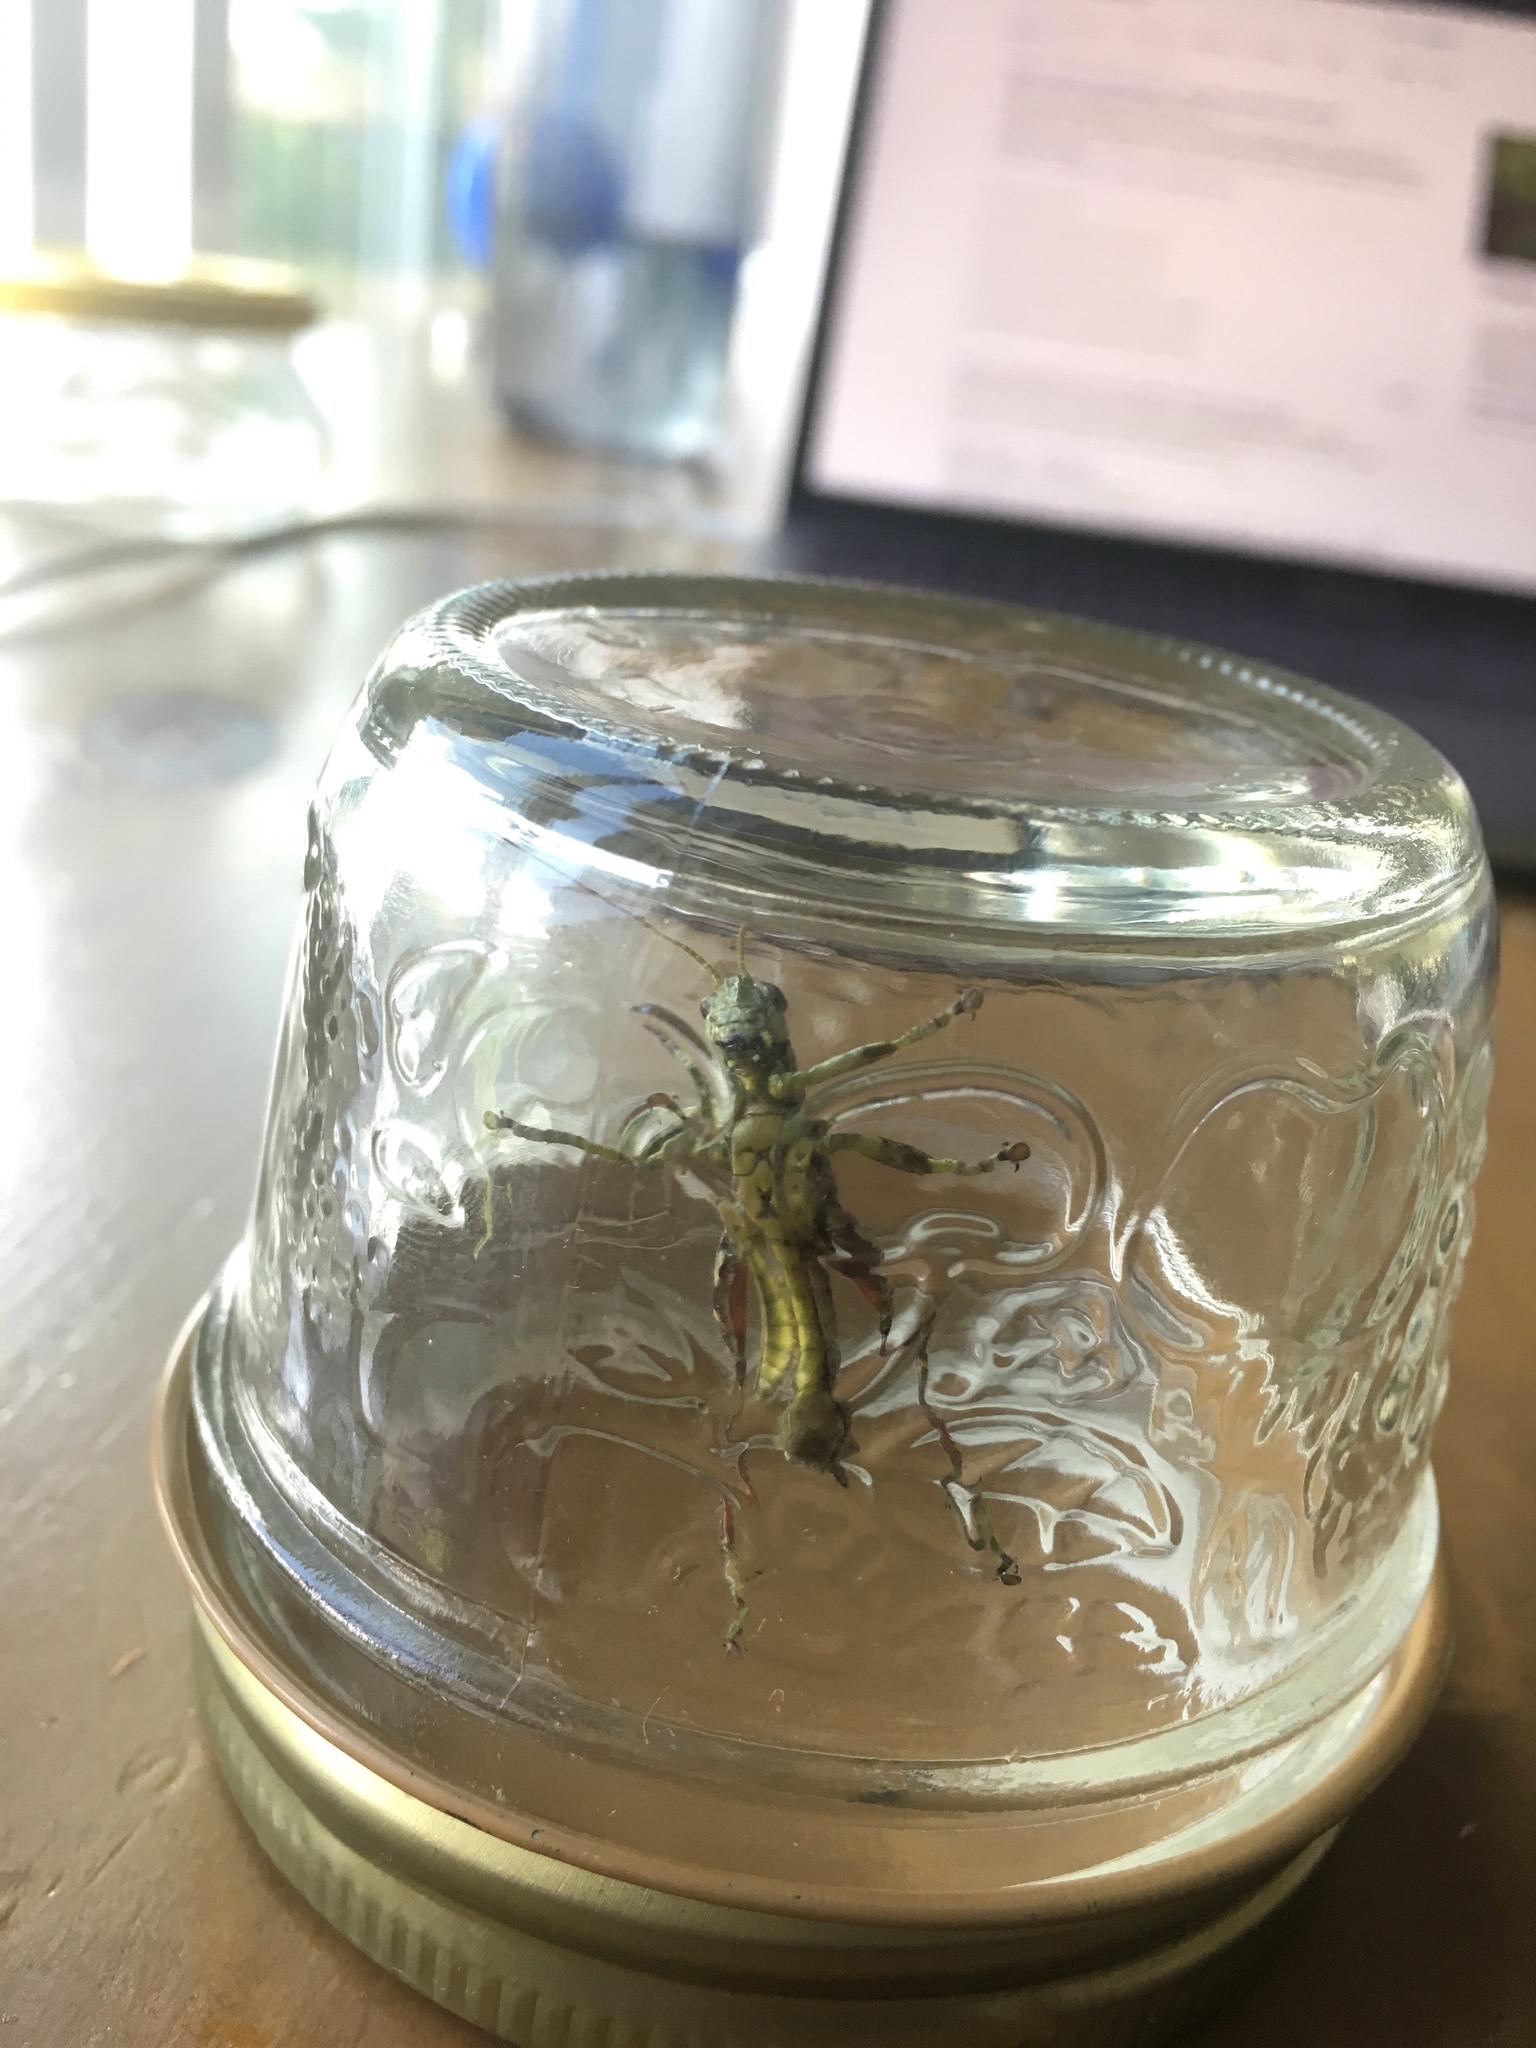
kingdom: Animalia
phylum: Arthropoda
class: Insecta
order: Orthoptera
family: Acrididae
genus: Melanoplus
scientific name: Melanoplus punctulatus
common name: Pine-tree spur-throat grasshopper
